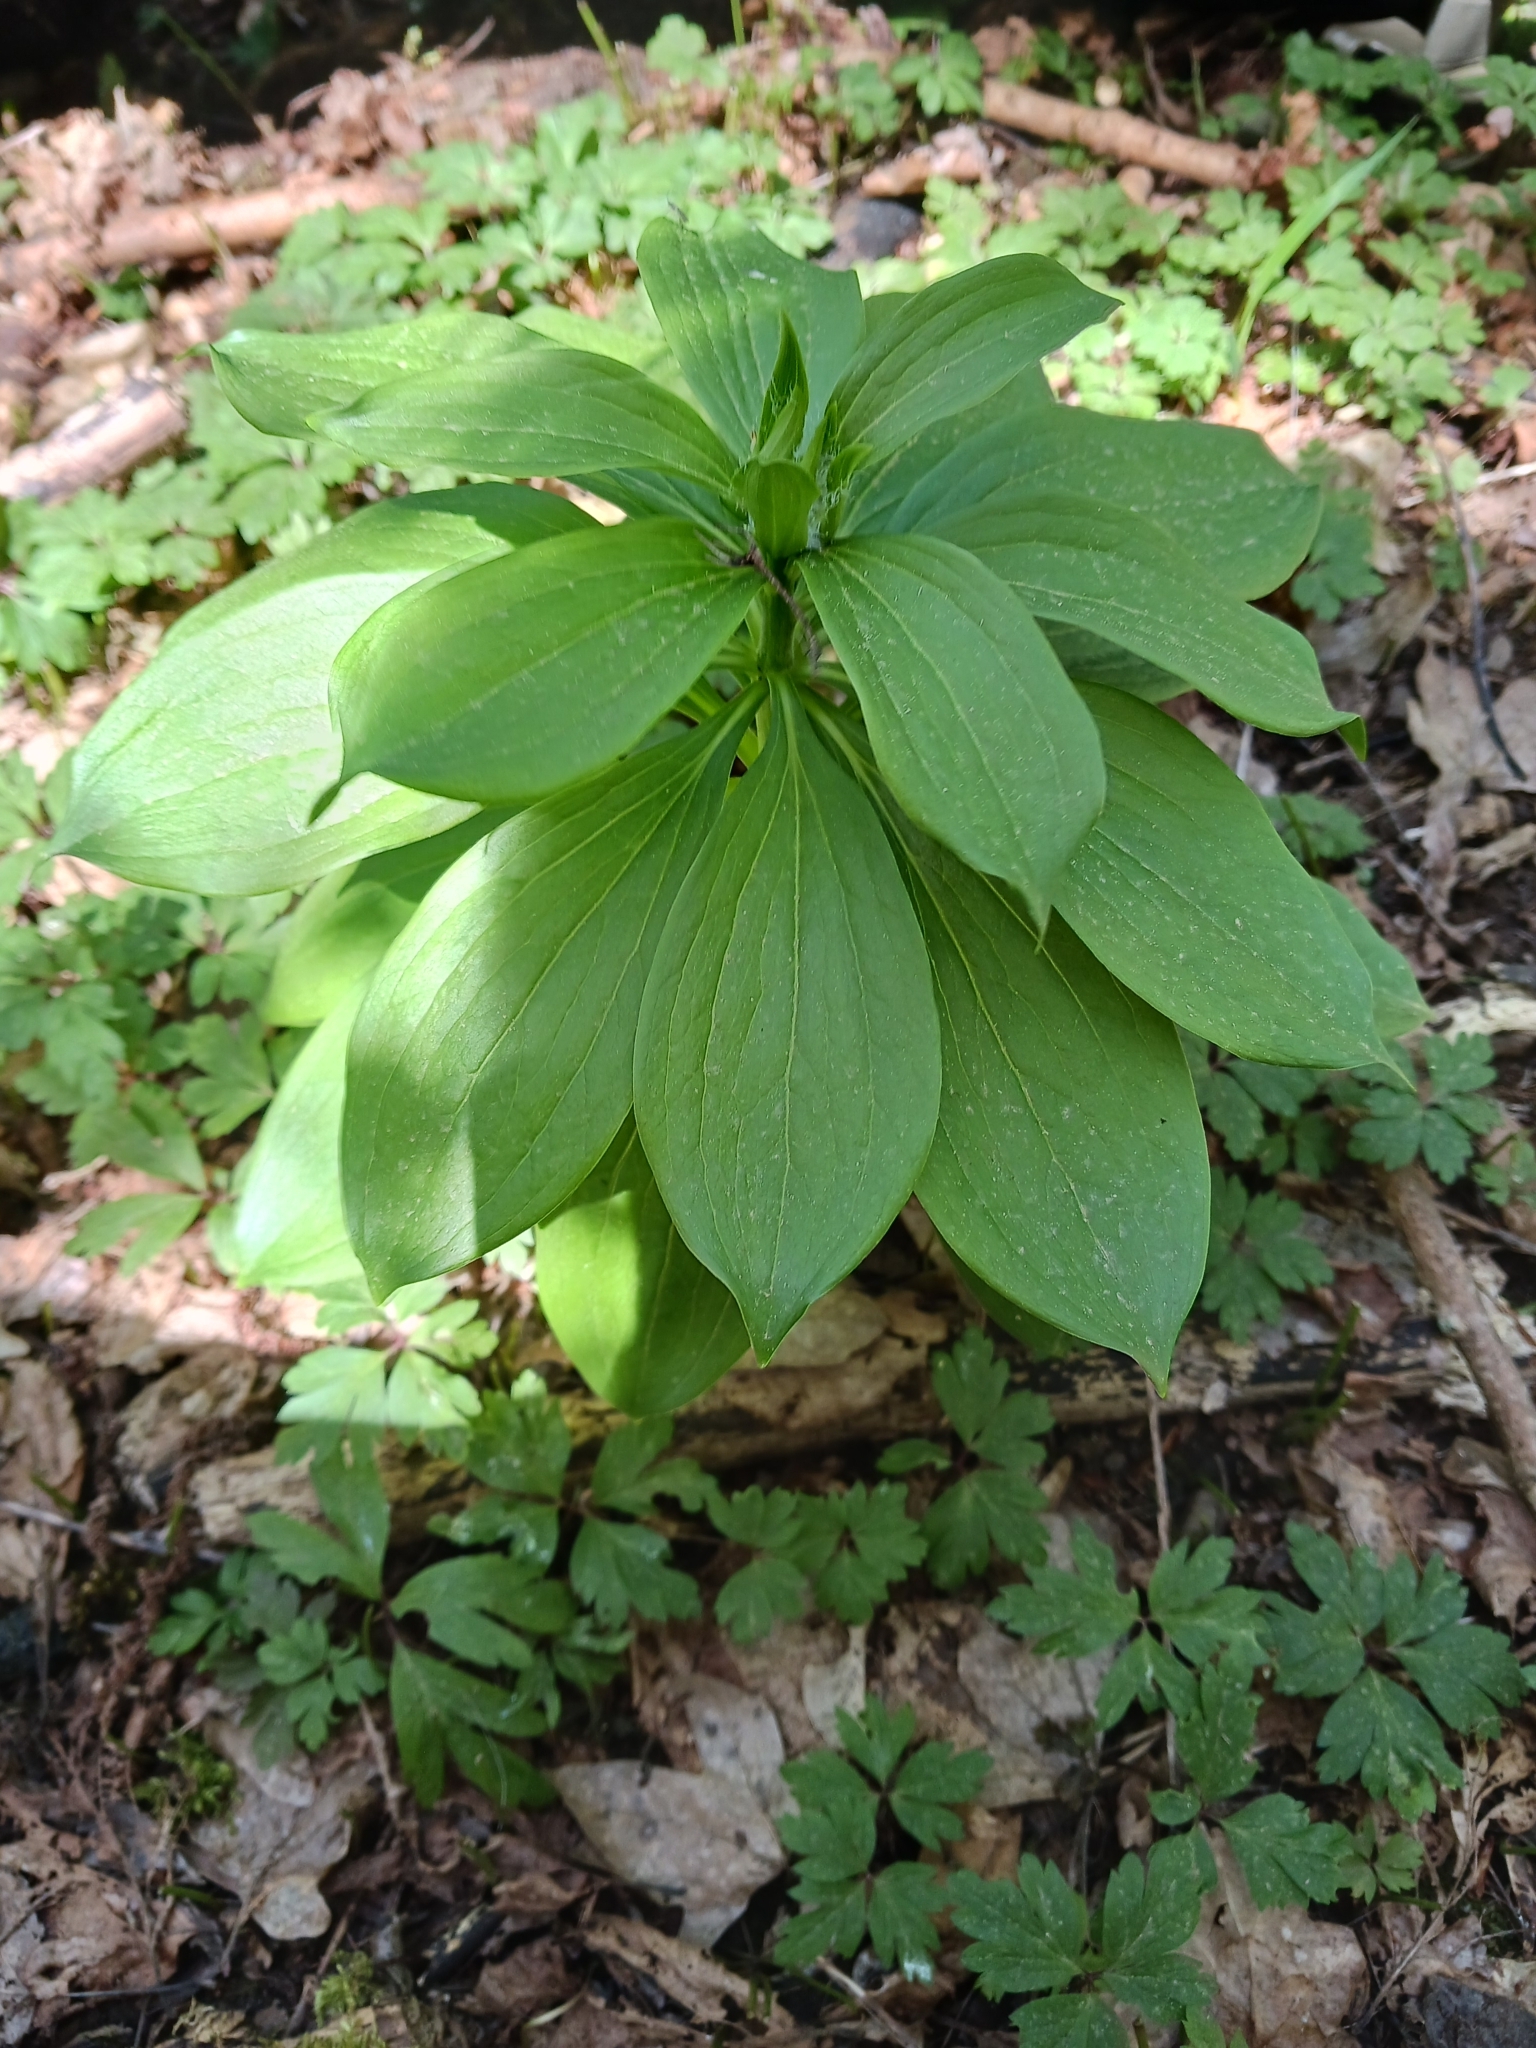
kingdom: Plantae
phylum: Tracheophyta
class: Liliopsida
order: Liliales
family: Liliaceae
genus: Lilium
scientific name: Lilium martagon
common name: Martagon lily
